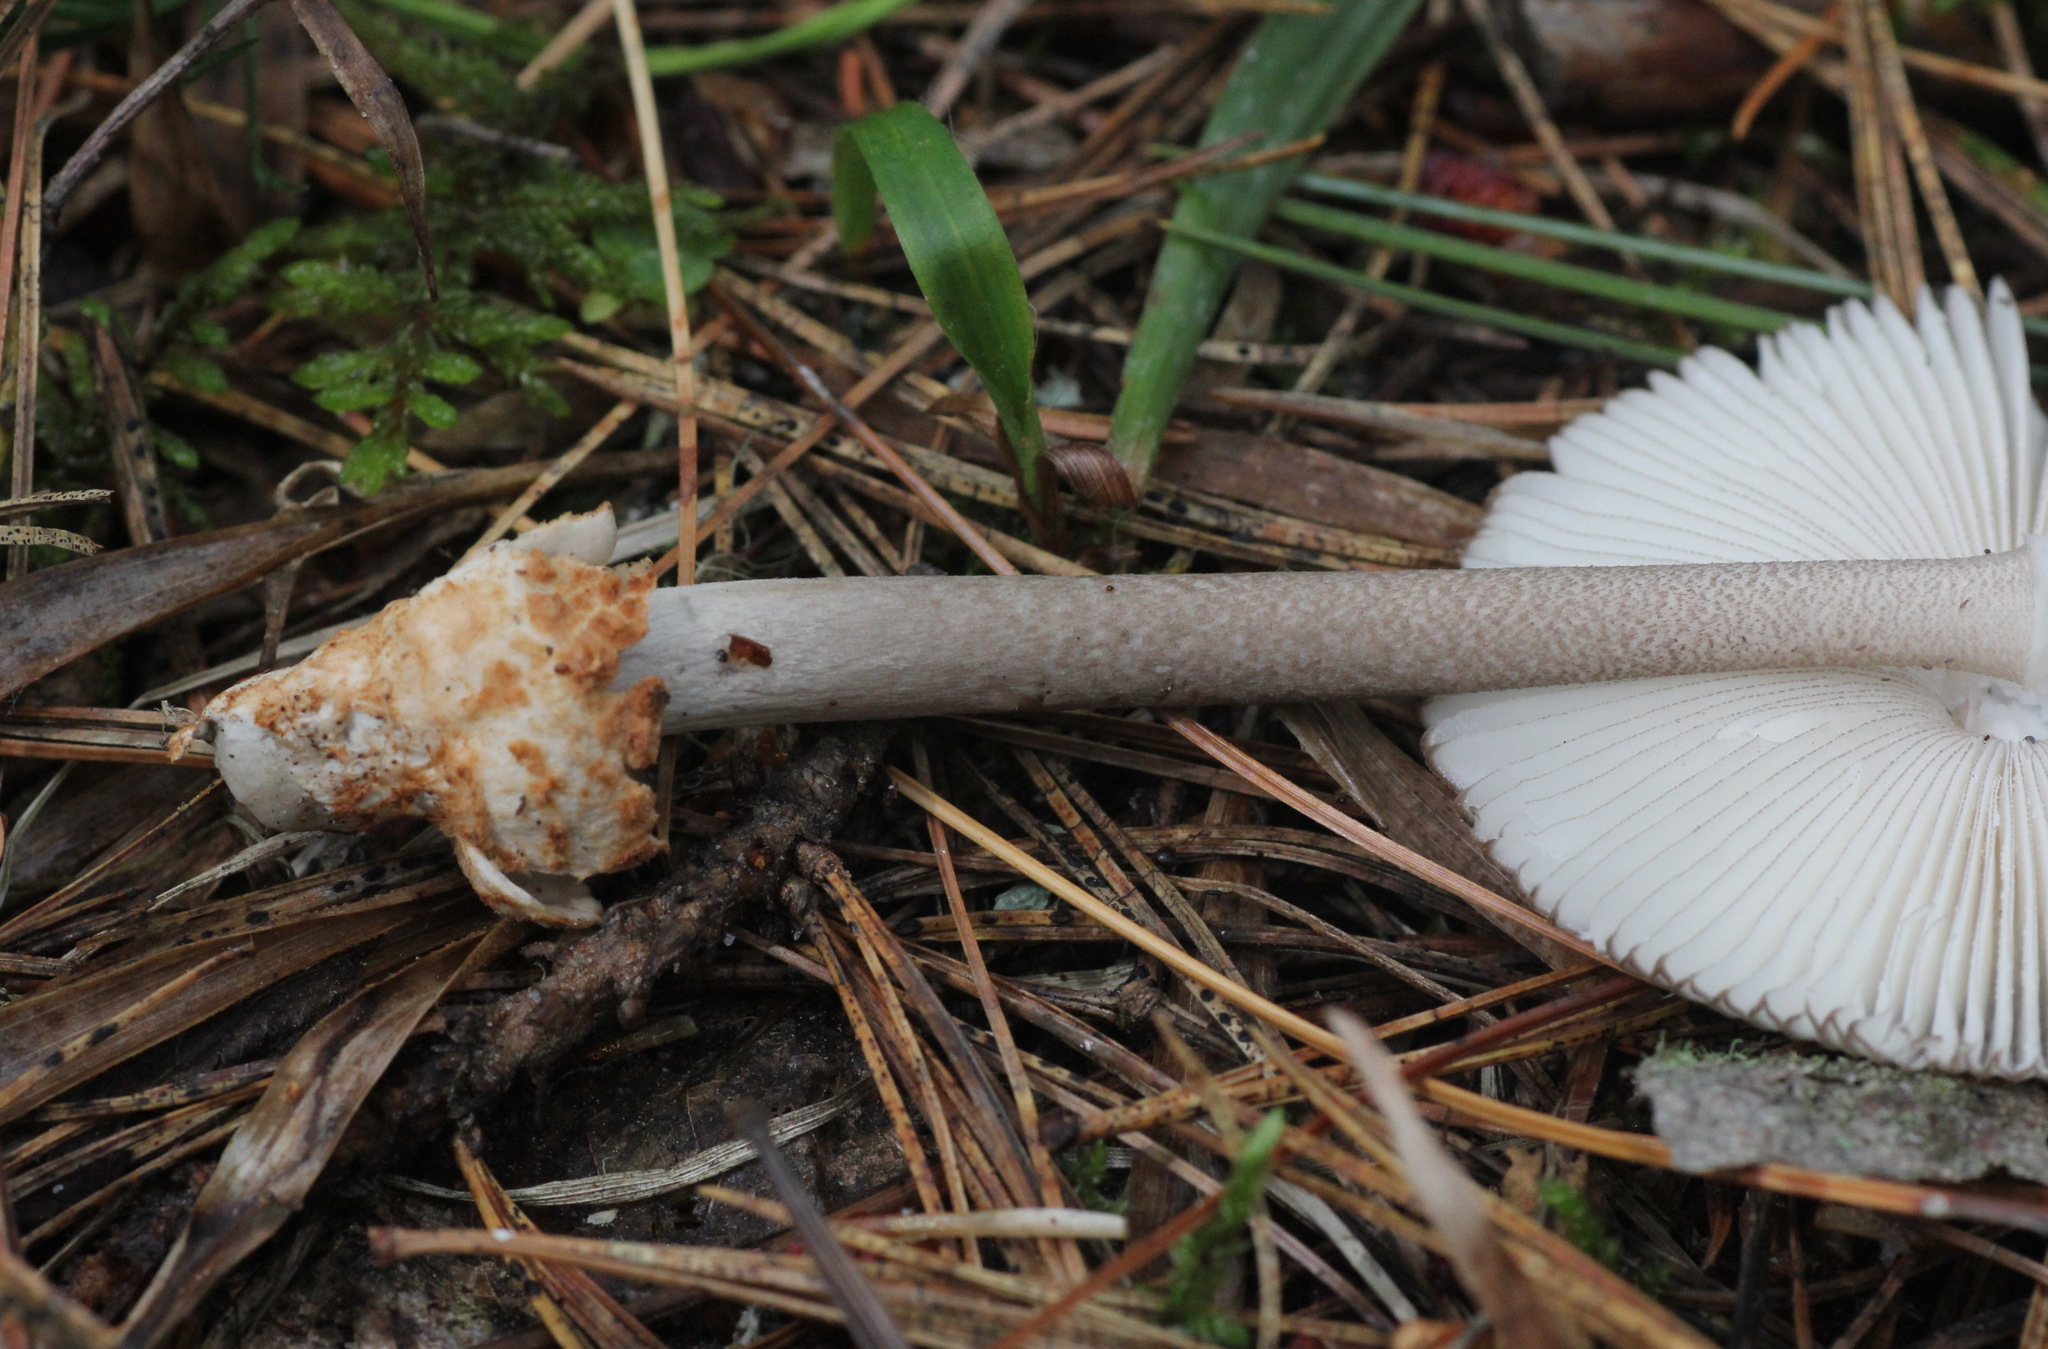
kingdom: Fungi
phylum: Basidiomycota
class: Agaricomycetes
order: Agaricales
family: Amanitaceae
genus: Amanita
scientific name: Amanita battarrae
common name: Banded amanita
